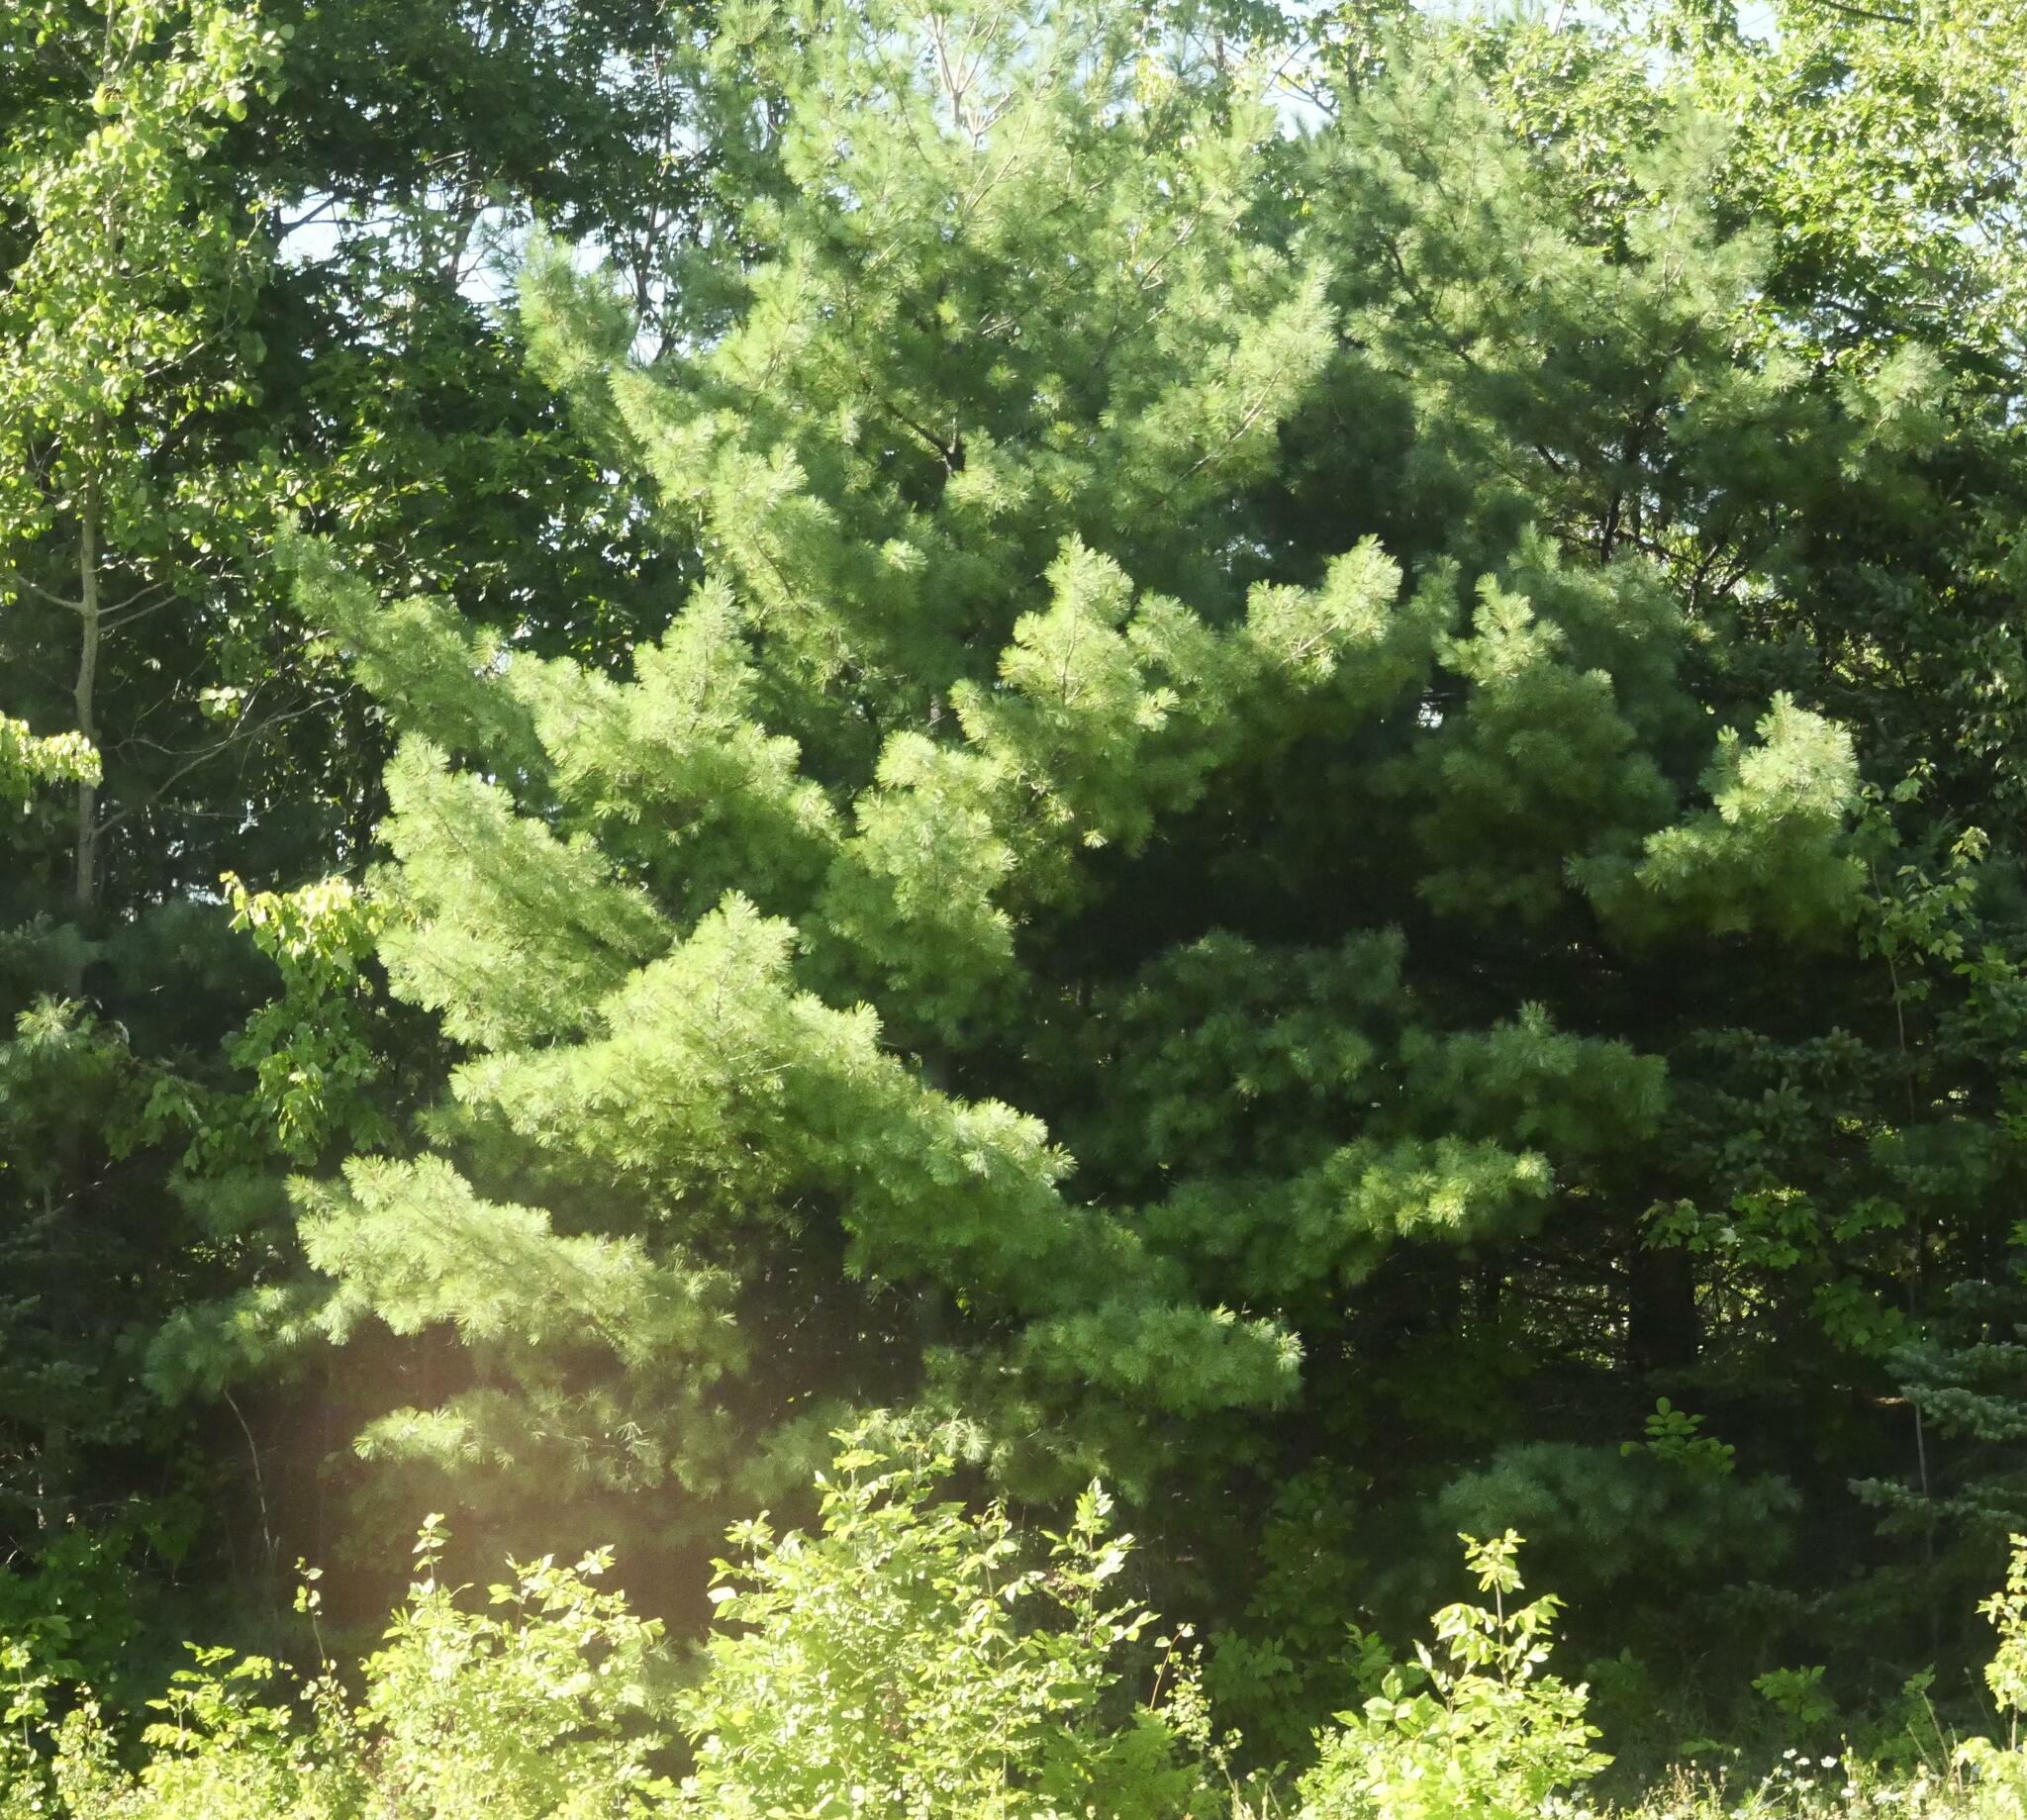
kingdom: Plantae
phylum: Tracheophyta
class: Pinopsida
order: Pinales
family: Pinaceae
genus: Pinus
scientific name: Pinus strobus
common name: Weymouth pine
